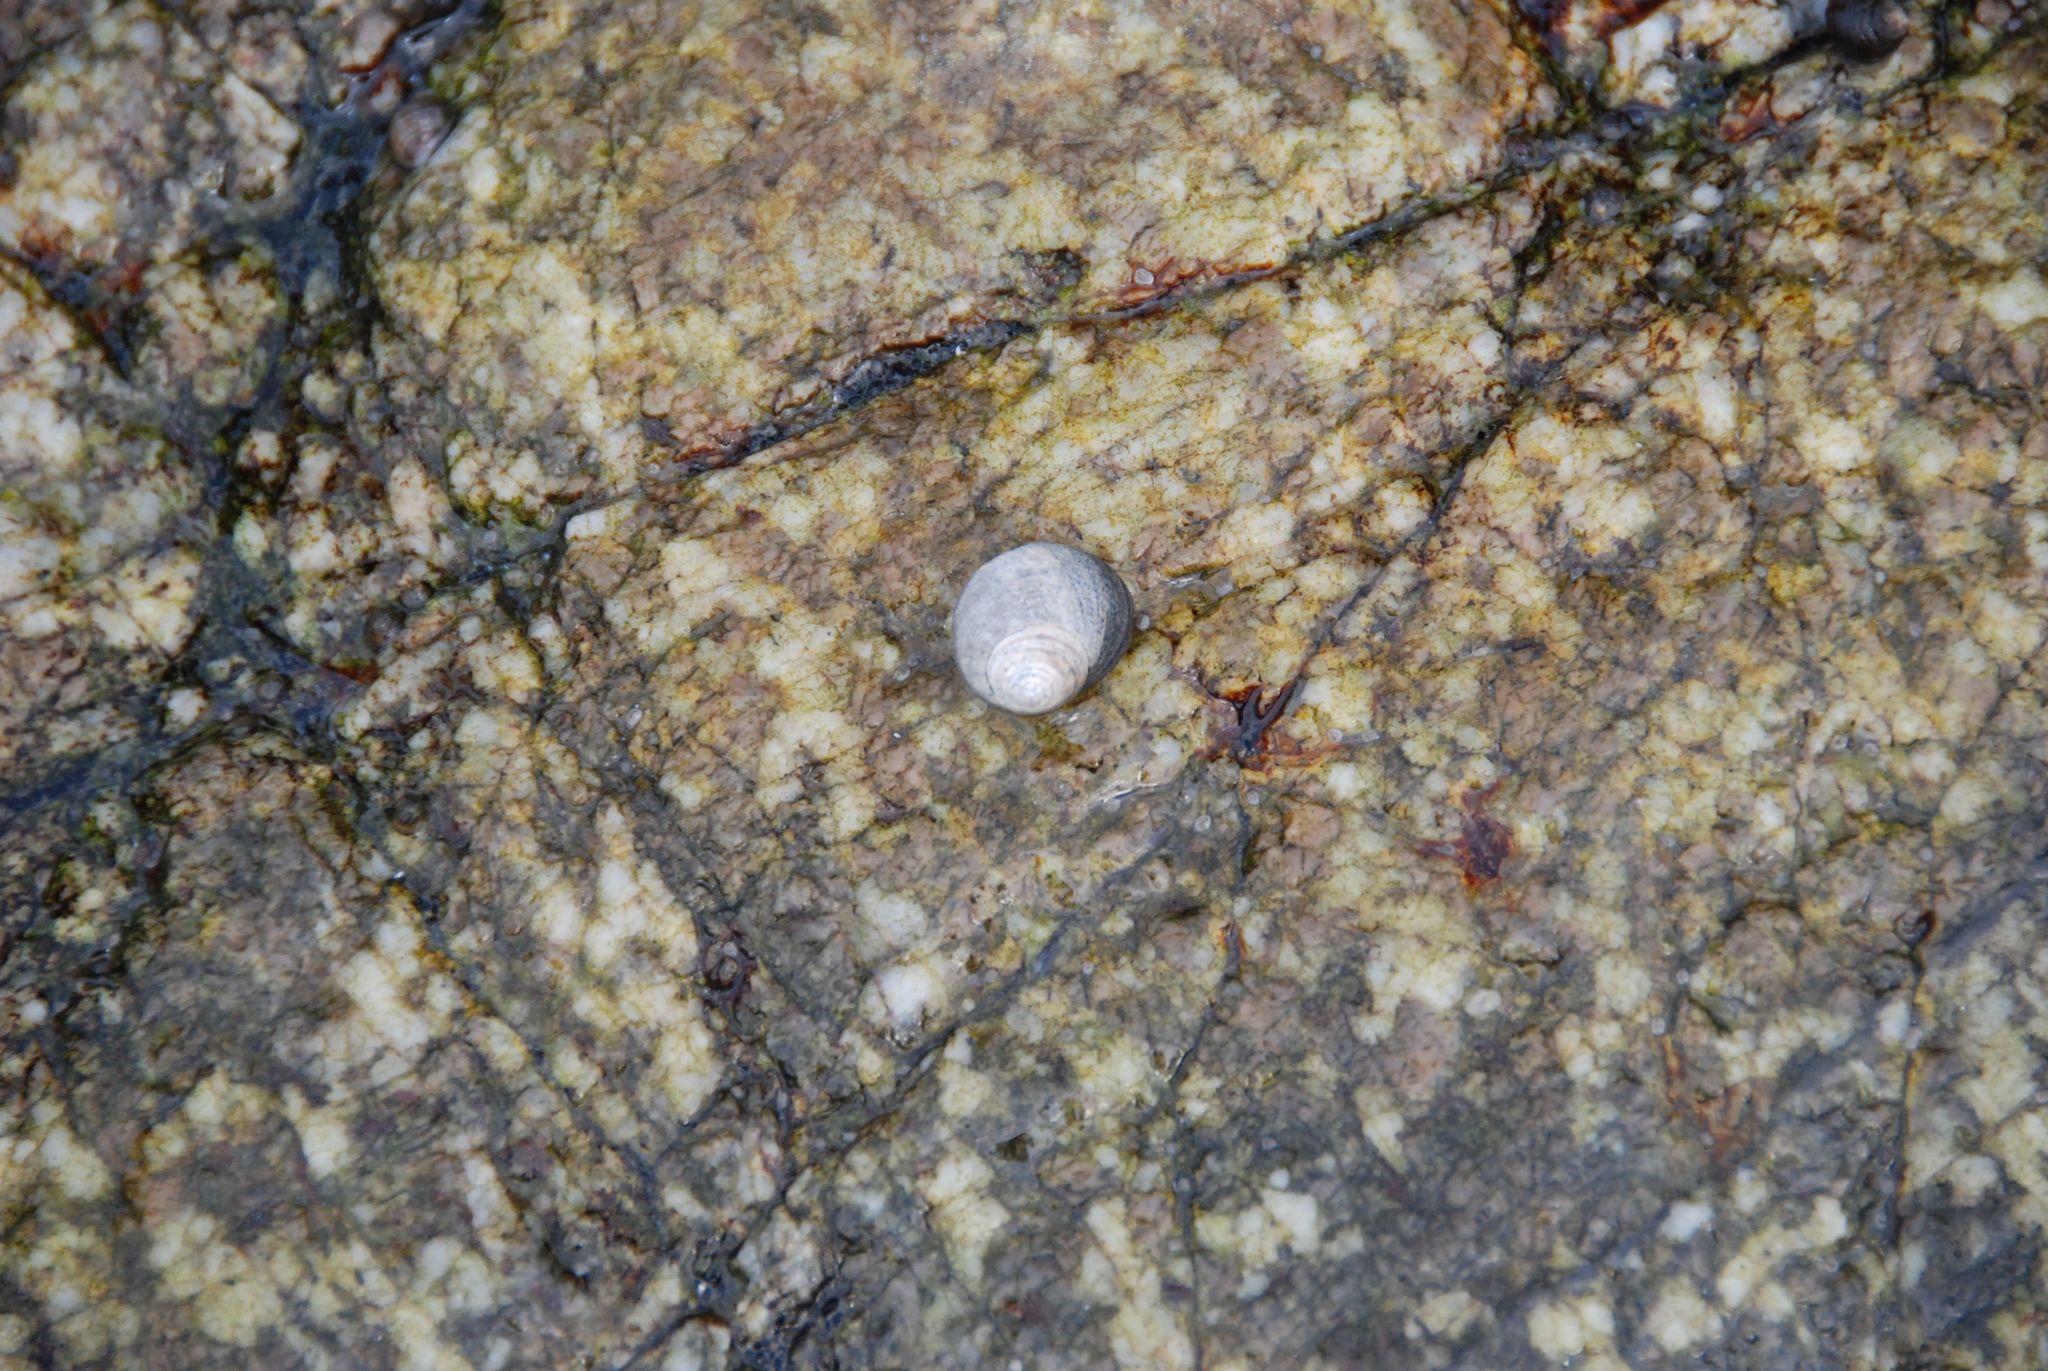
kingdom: Animalia
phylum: Mollusca
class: Gastropoda
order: Littorinimorpha
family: Littorinidae
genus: Littorina
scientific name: Littorina littorea
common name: Common periwinkle
